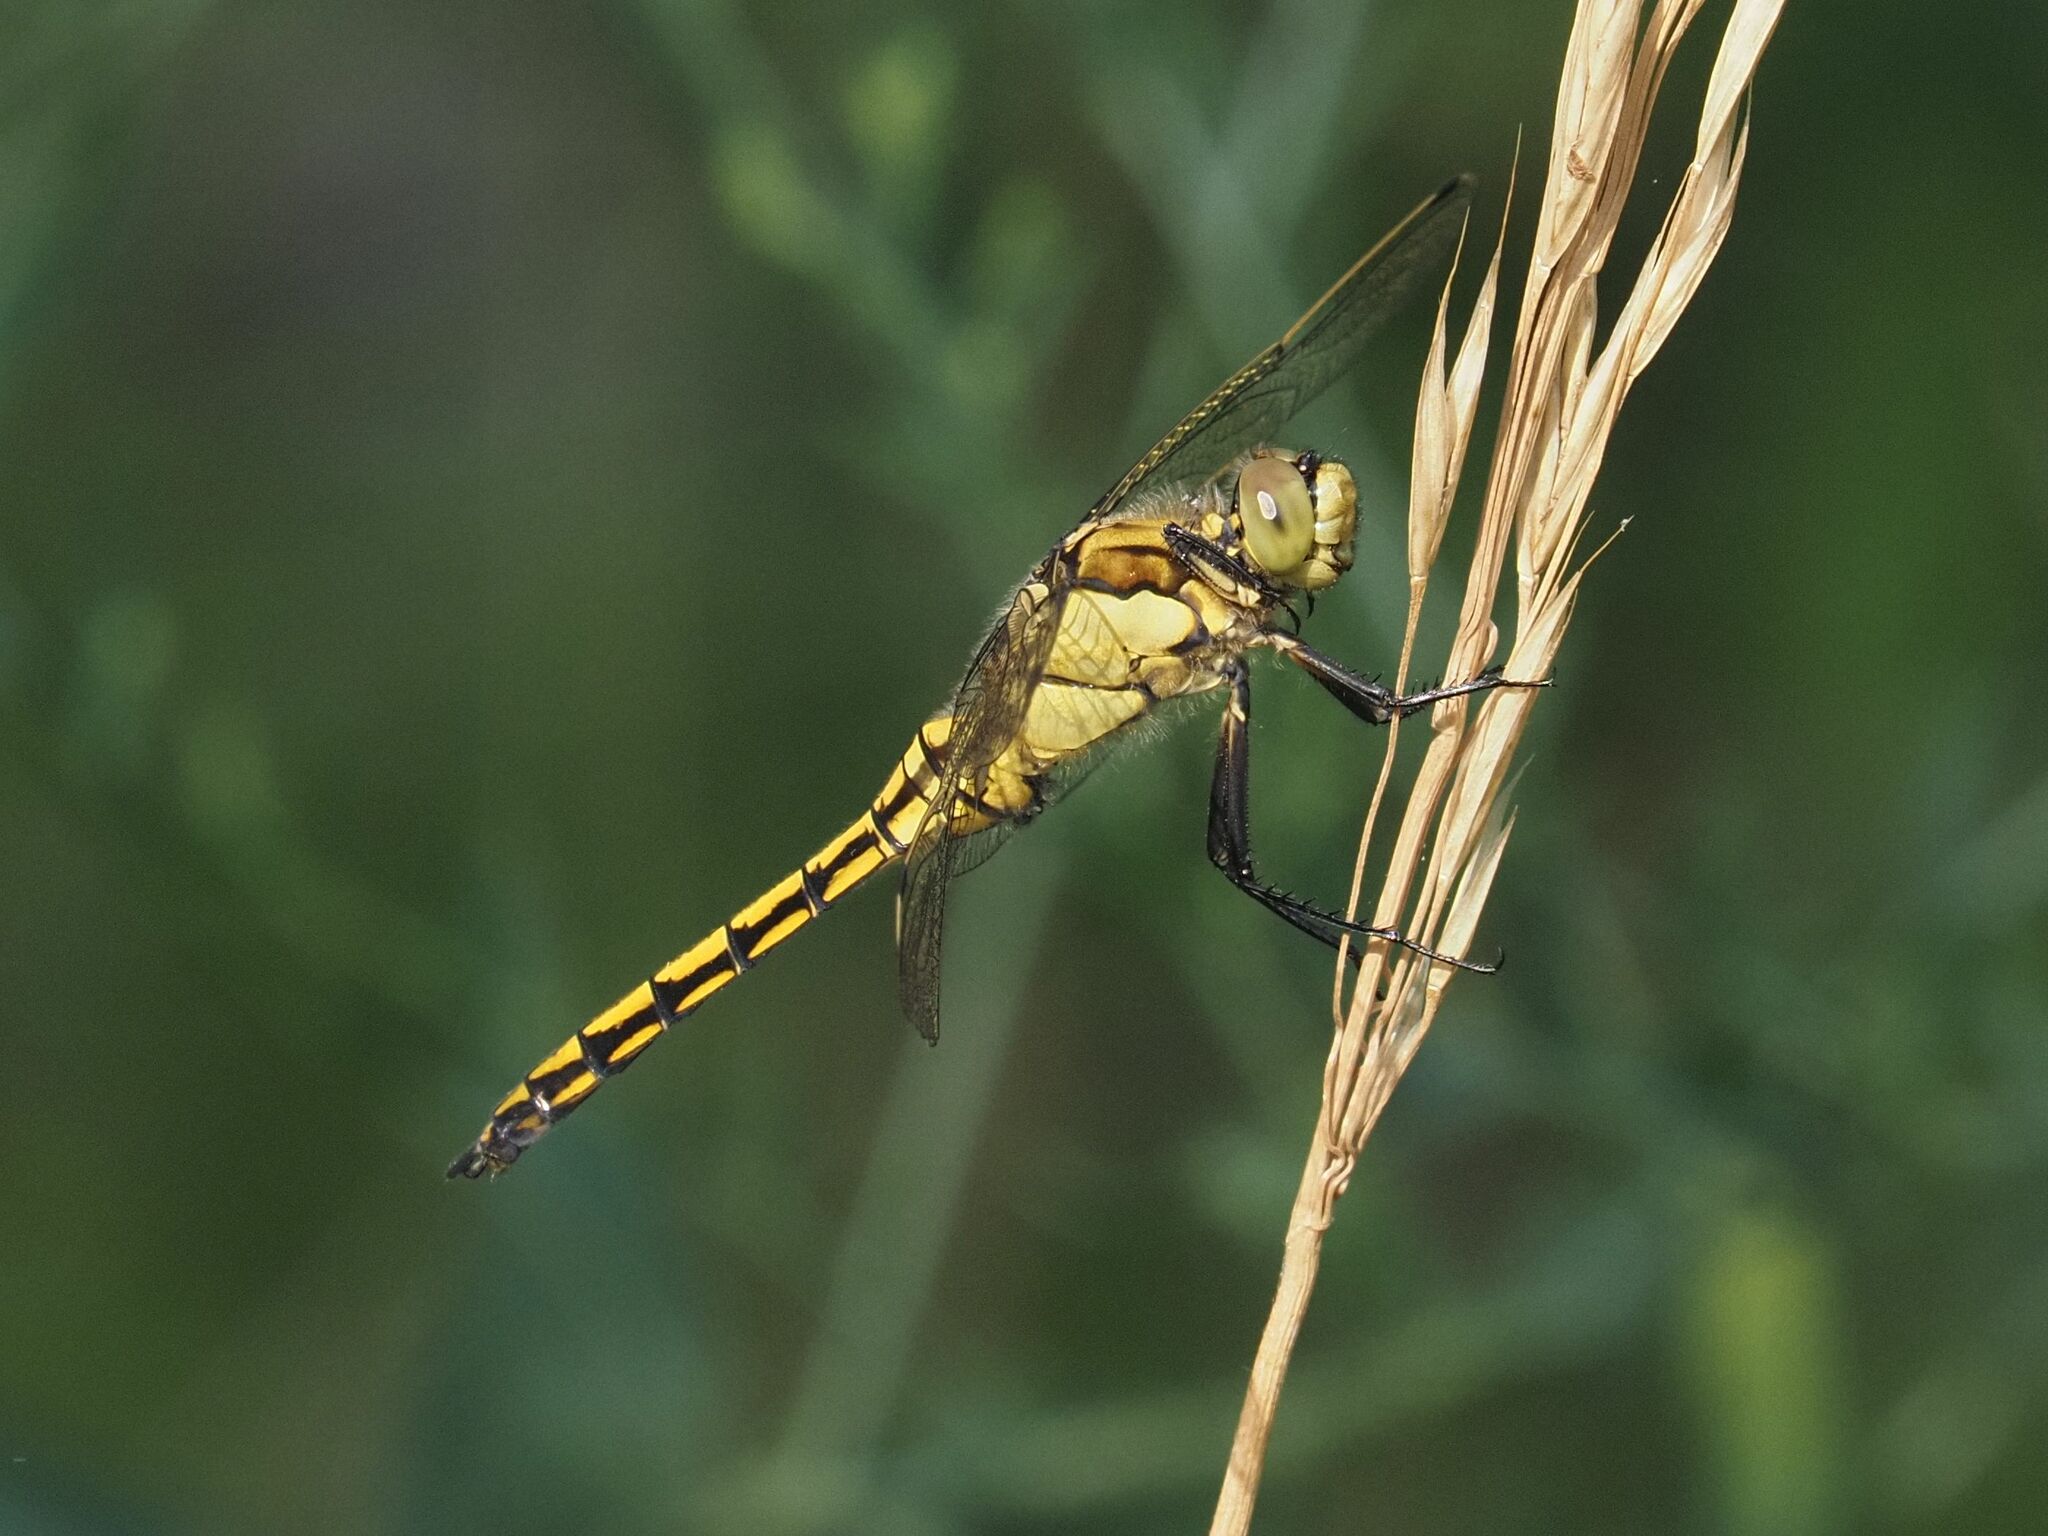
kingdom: Animalia
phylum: Arthropoda
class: Insecta
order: Odonata
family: Libellulidae
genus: Orthetrum
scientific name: Orthetrum cancellatum
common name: Black-tailed skimmer
